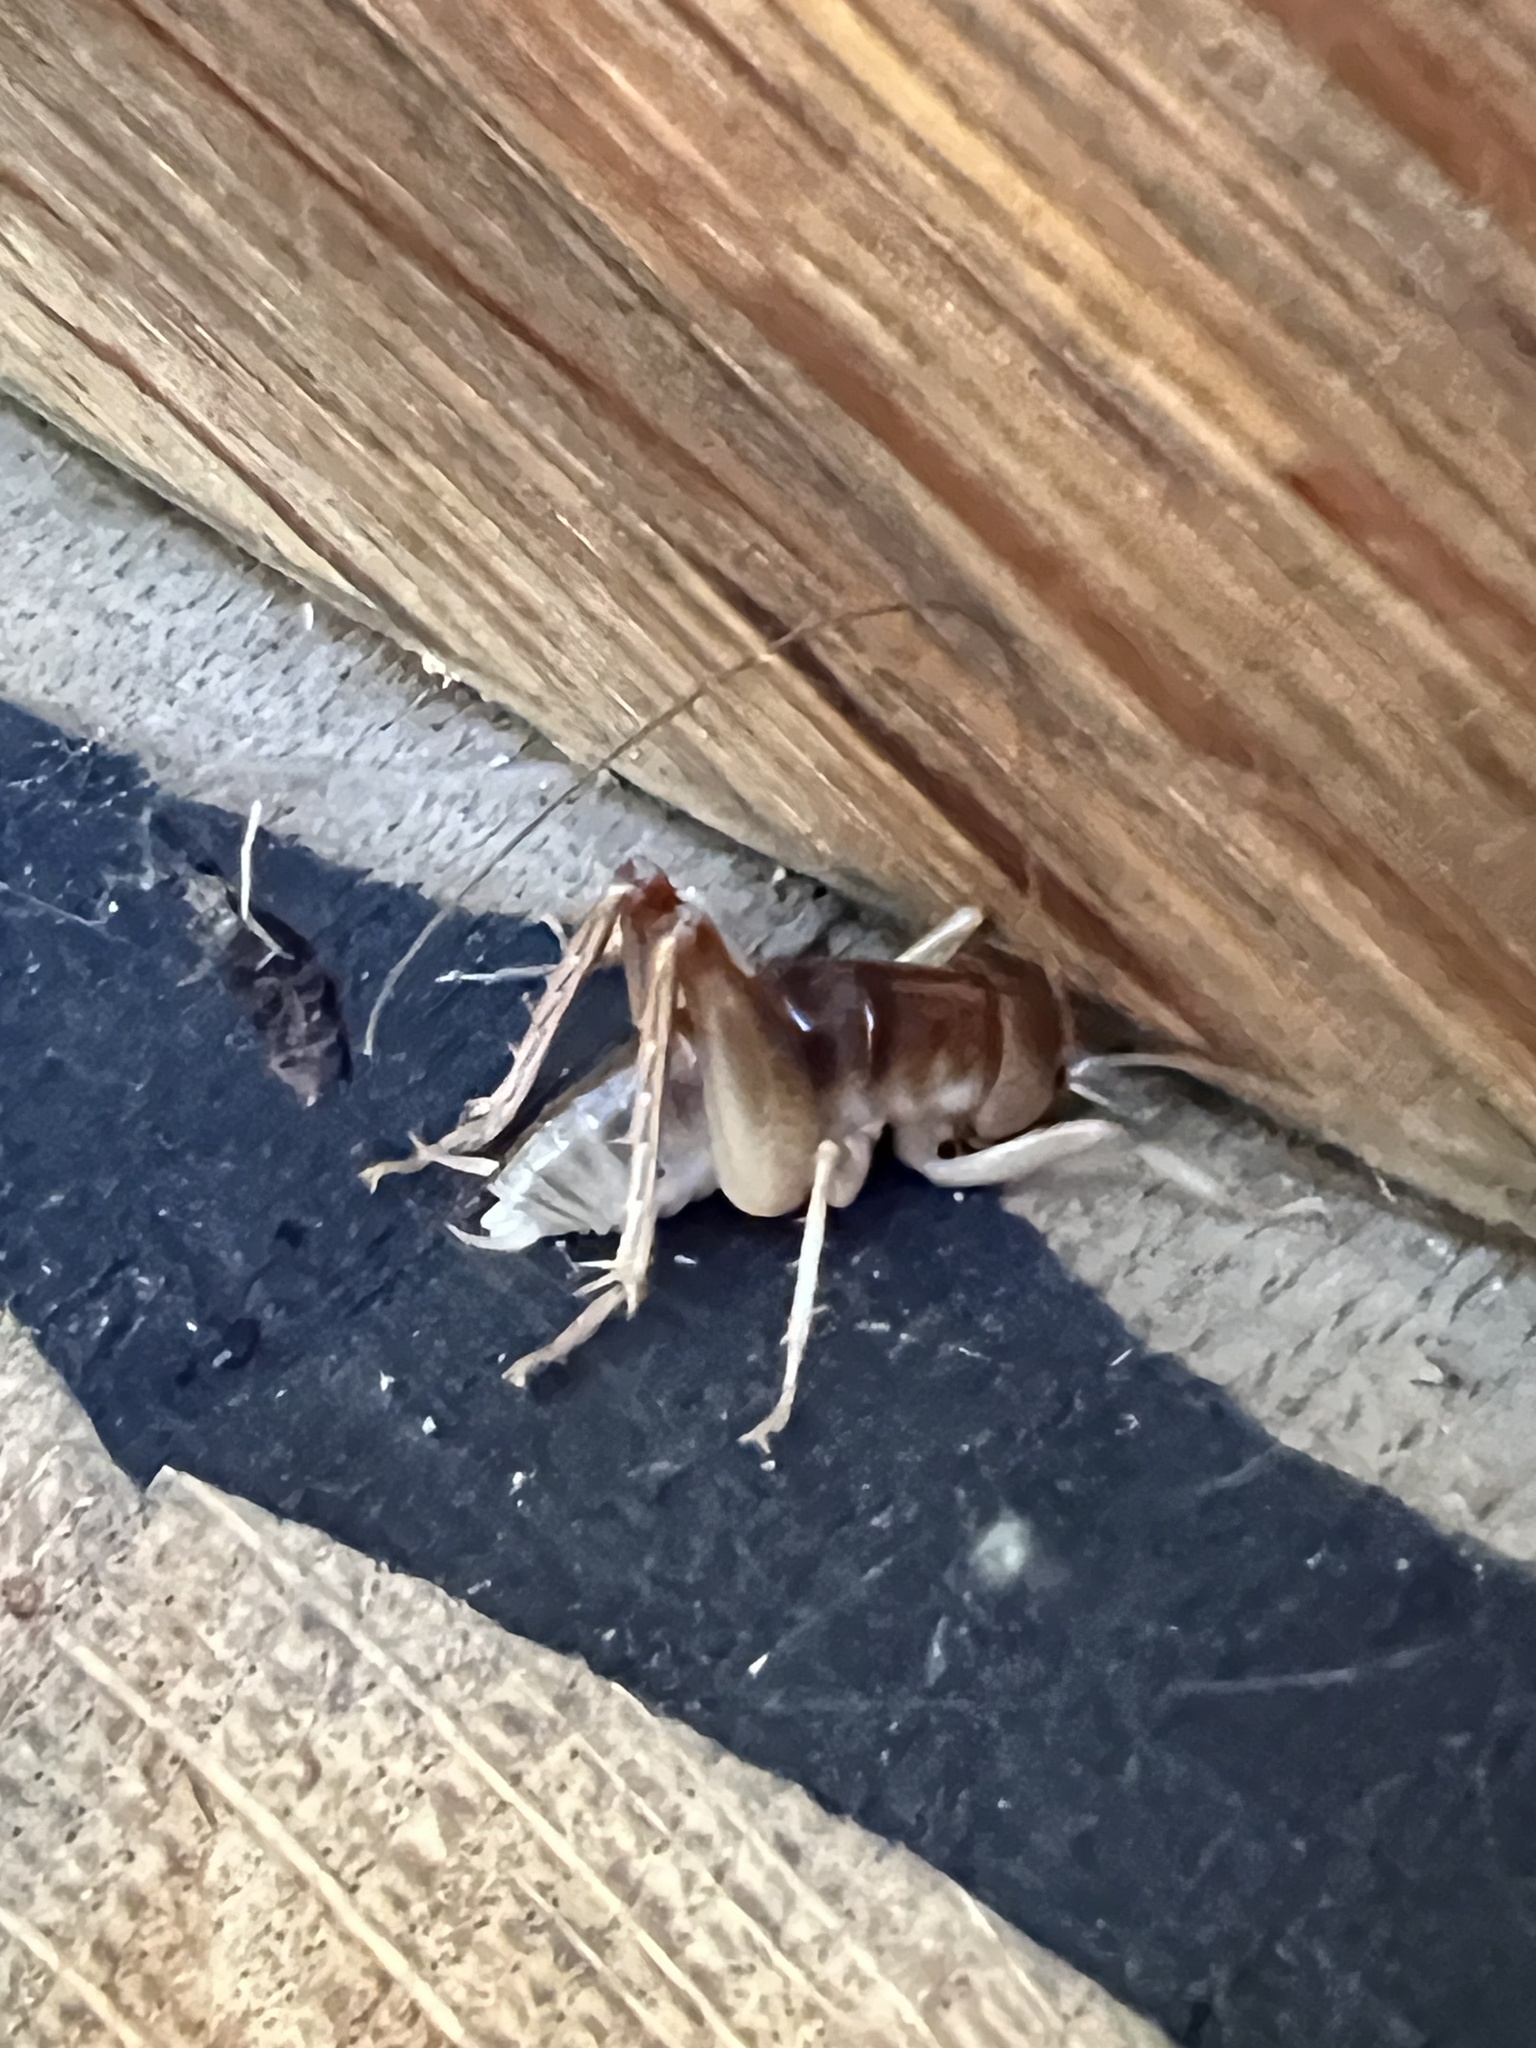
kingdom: Animalia
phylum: Arthropoda
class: Insecta
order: Orthoptera
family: Rhaphidophoridae
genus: Ceuthophilus
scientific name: Ceuthophilus californianus
